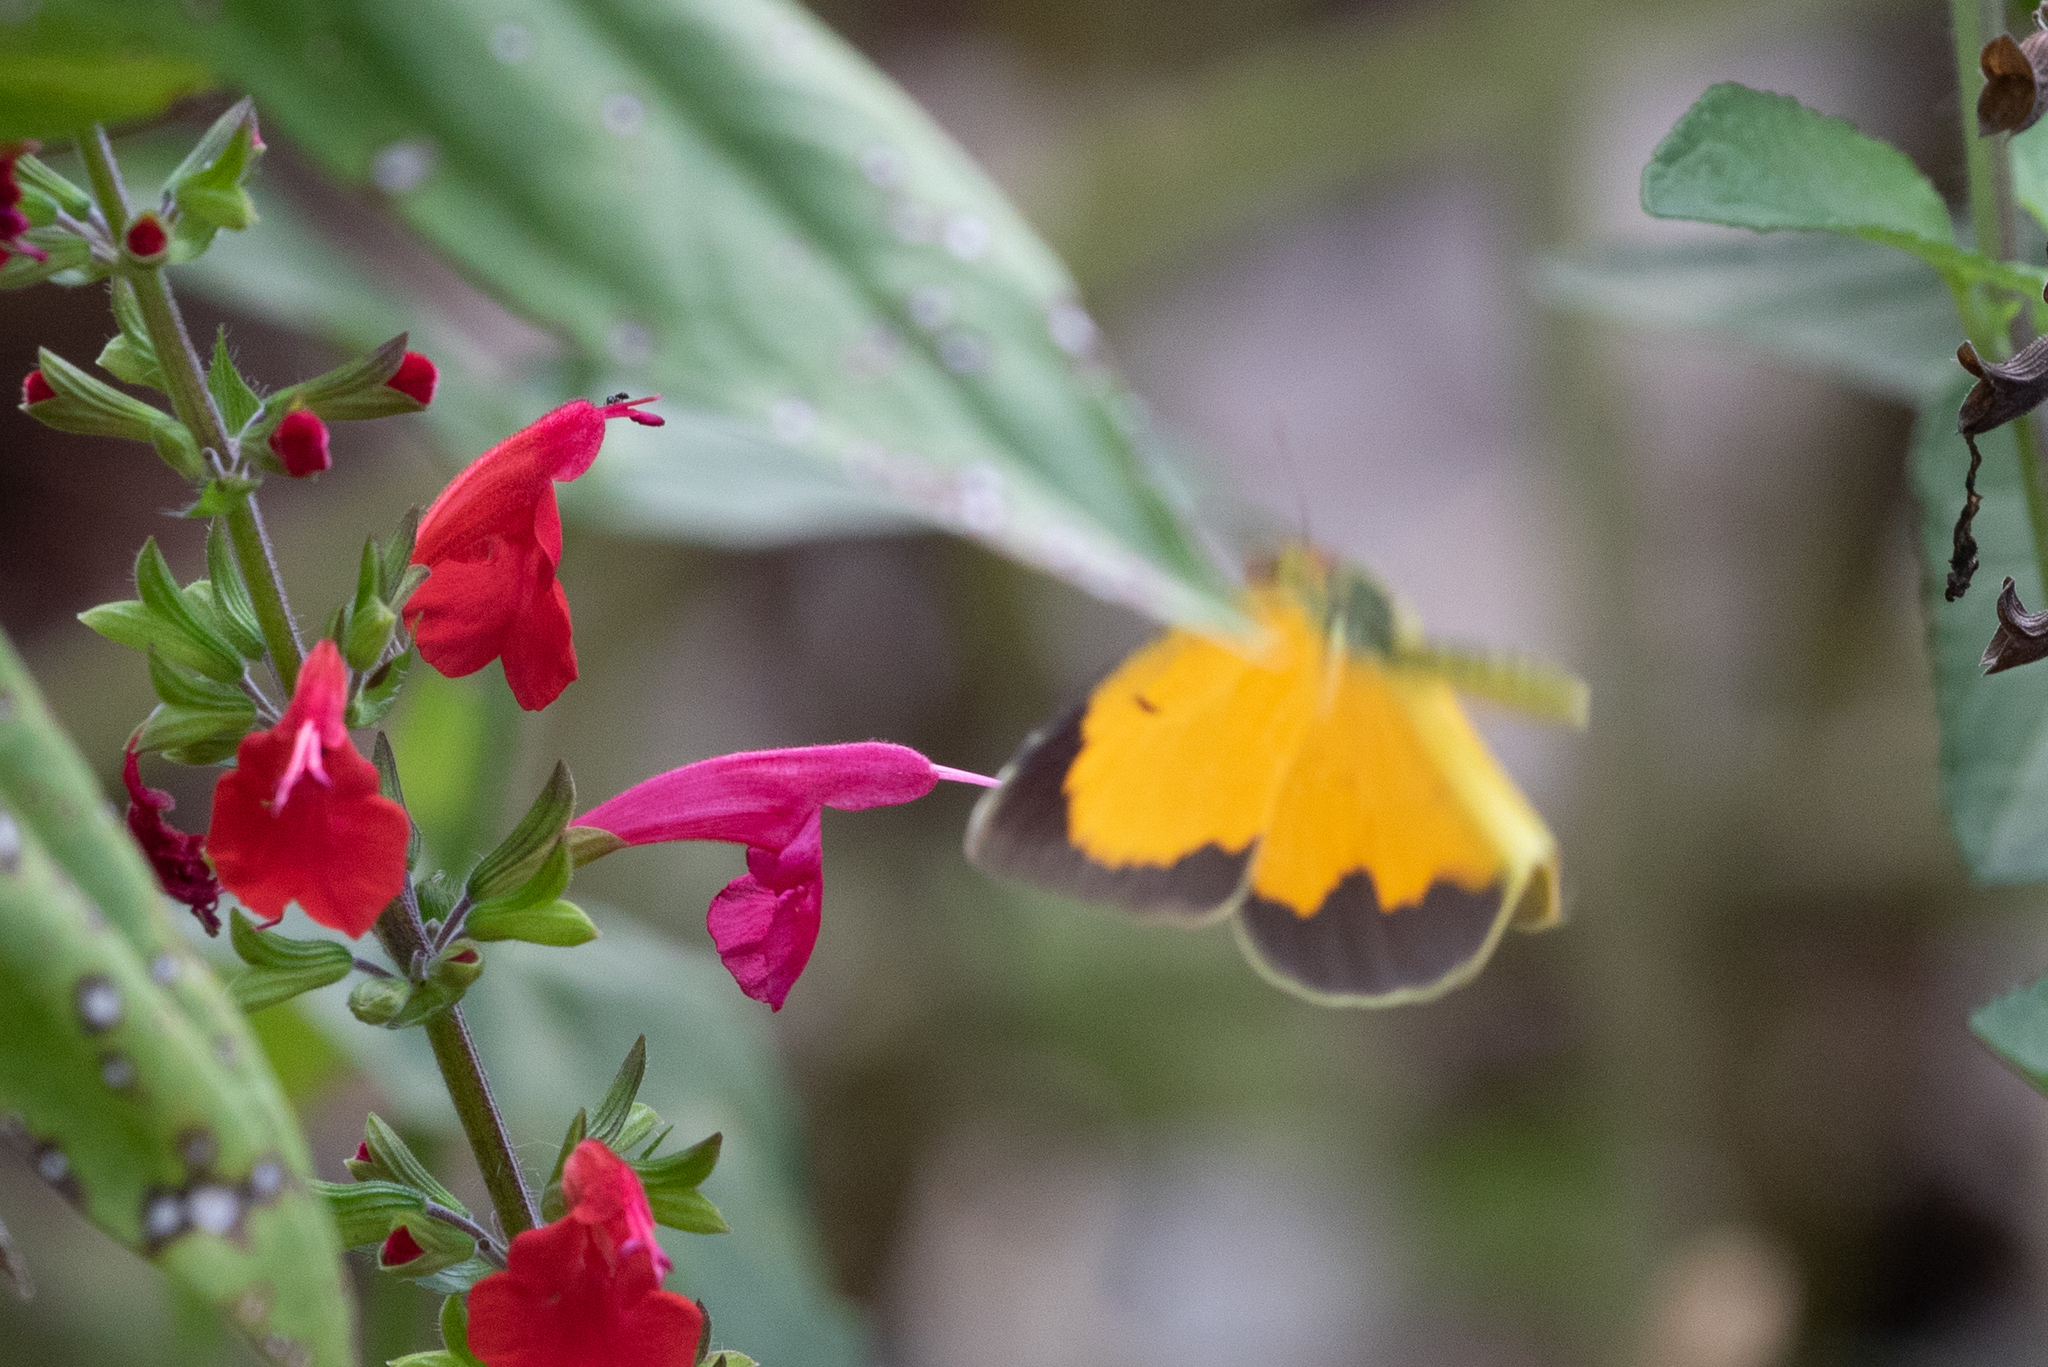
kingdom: Animalia
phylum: Arthropoda
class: Insecta
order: Lepidoptera
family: Pieridae
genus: Abaeis
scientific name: Abaeis nicippe
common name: Sleepy orange
